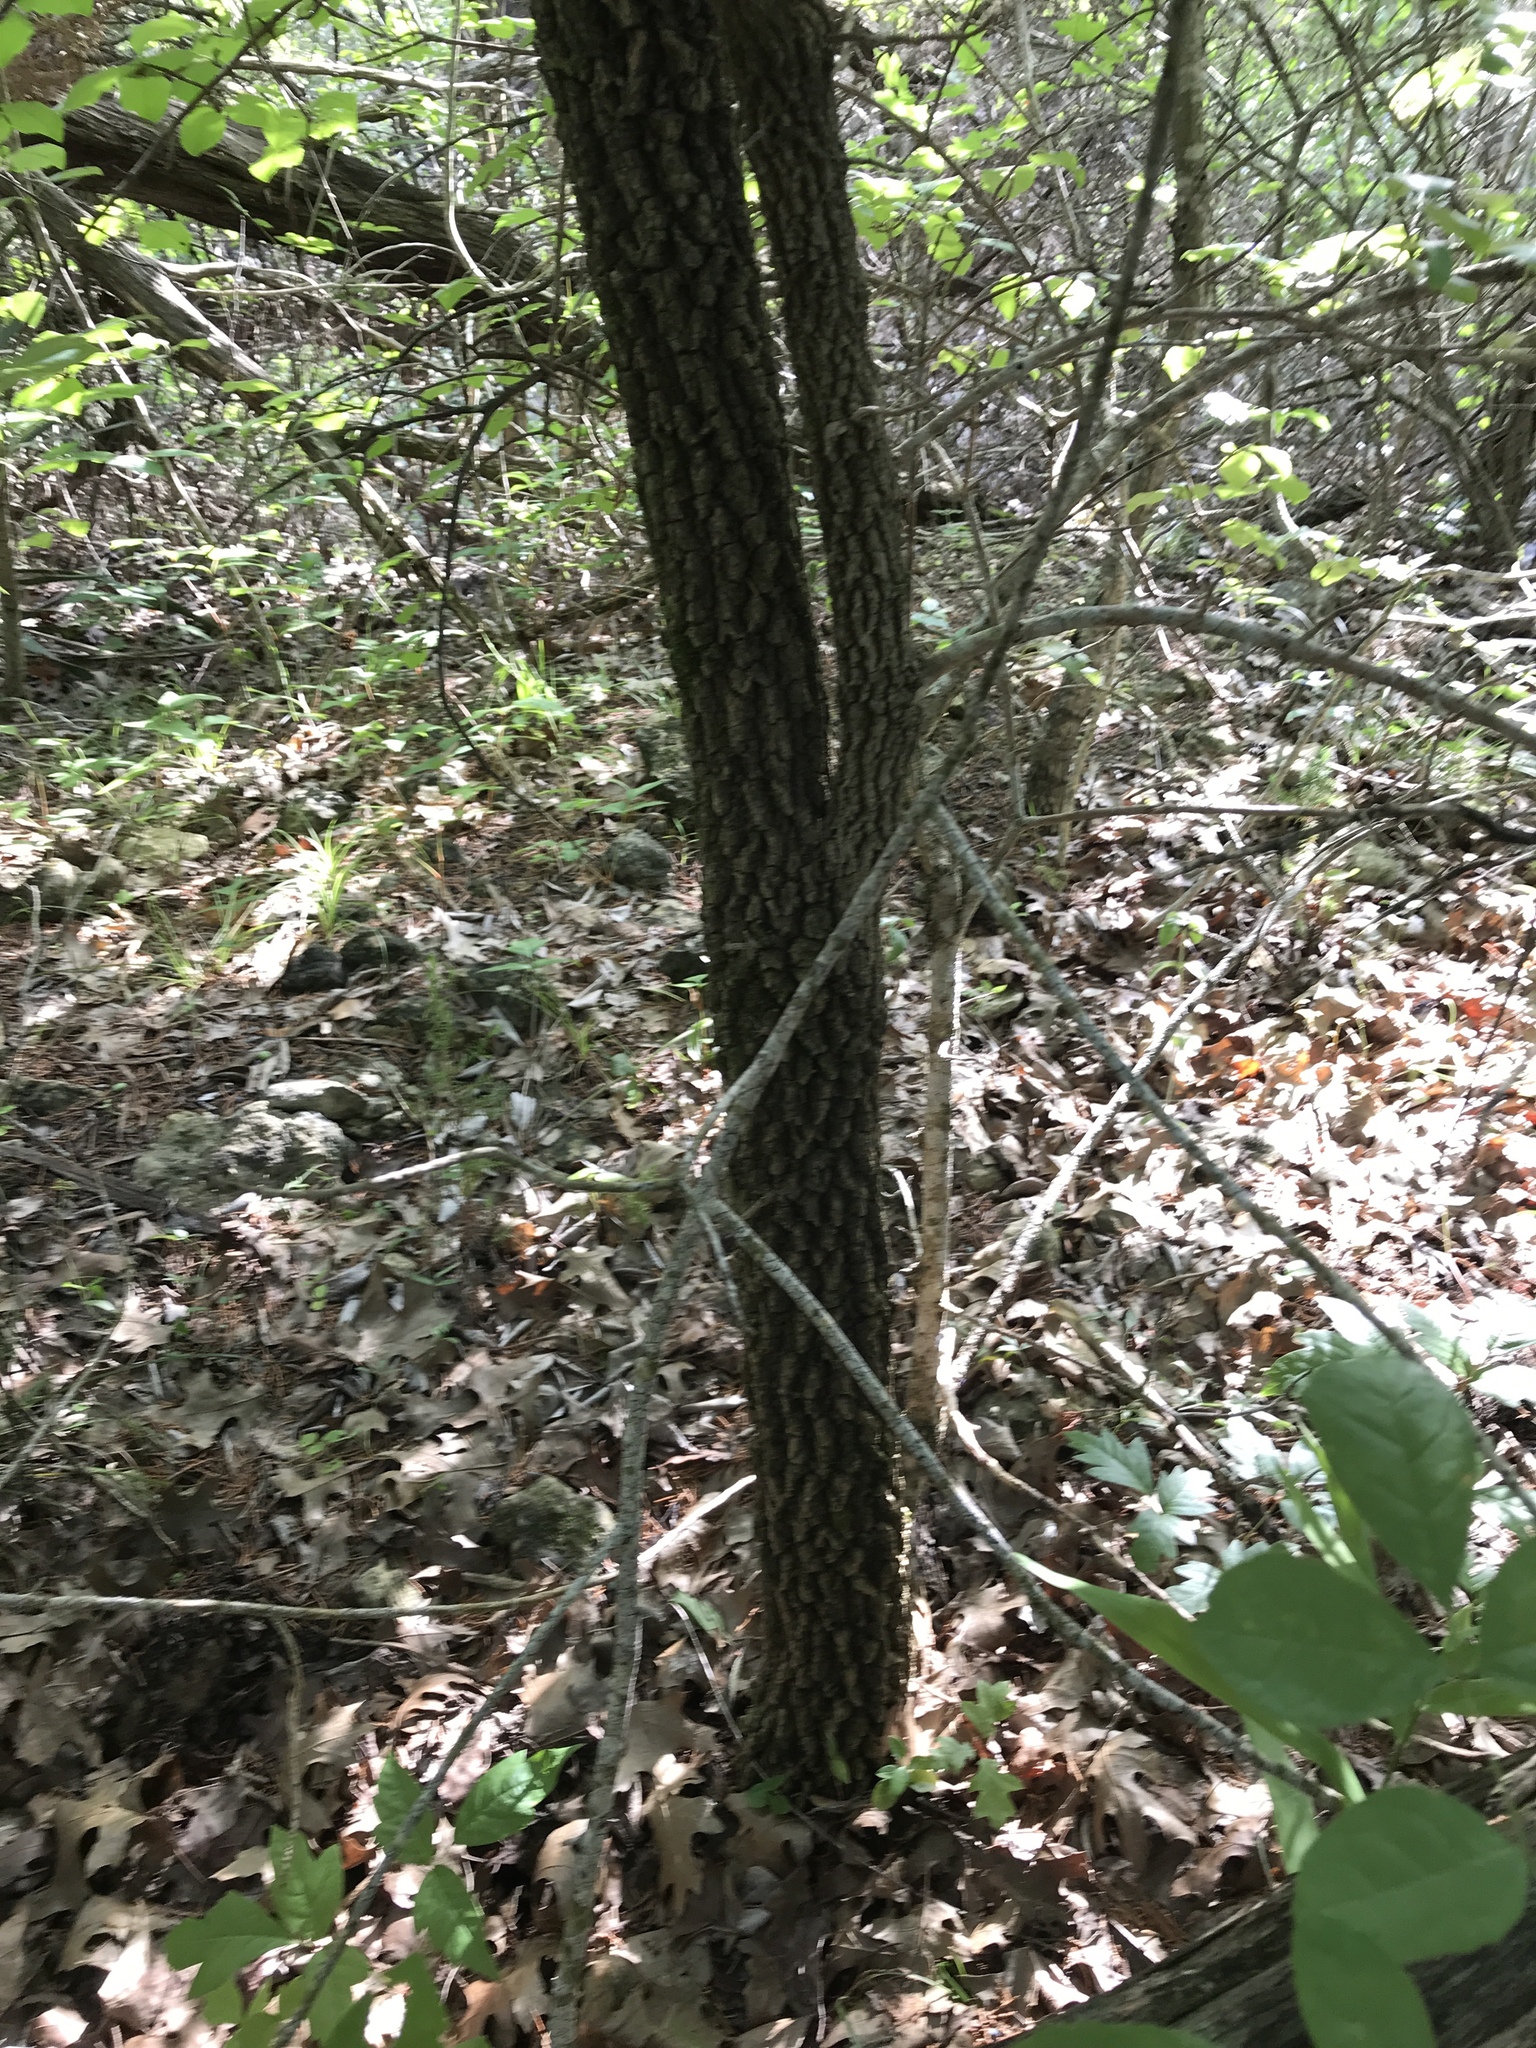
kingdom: Plantae
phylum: Tracheophyta
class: Magnoliopsida
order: Dipsacales
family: Viburnaceae
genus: Viburnum
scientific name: Viburnum rufidulum
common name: Blue haw
